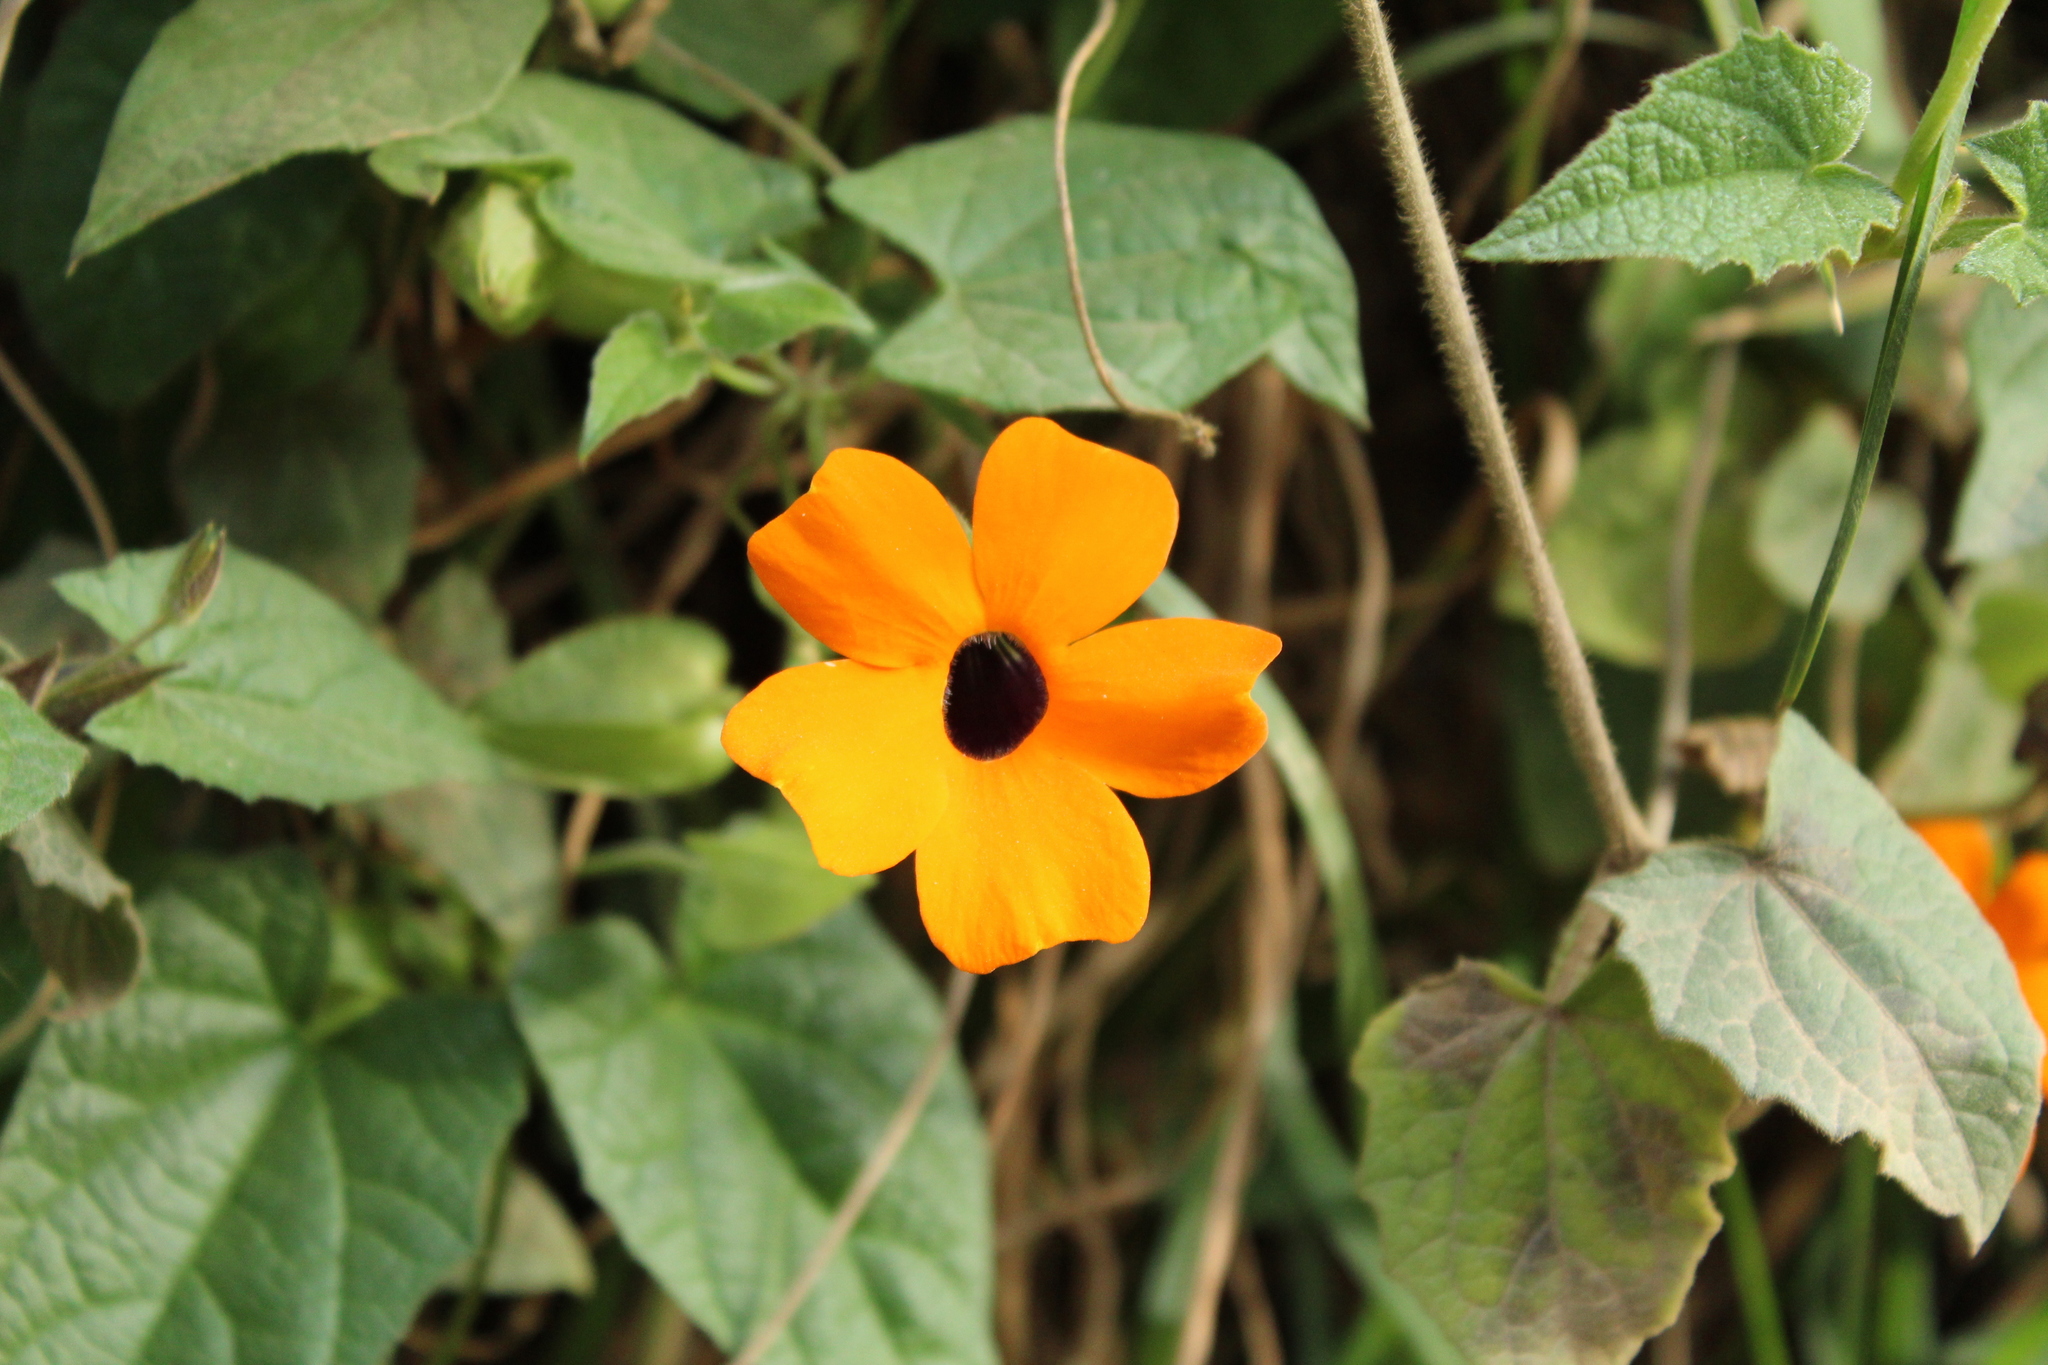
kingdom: Plantae
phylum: Tracheophyta
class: Magnoliopsida
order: Lamiales
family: Acanthaceae
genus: Thunbergia
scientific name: Thunbergia alata
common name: Blackeyed susan vine
